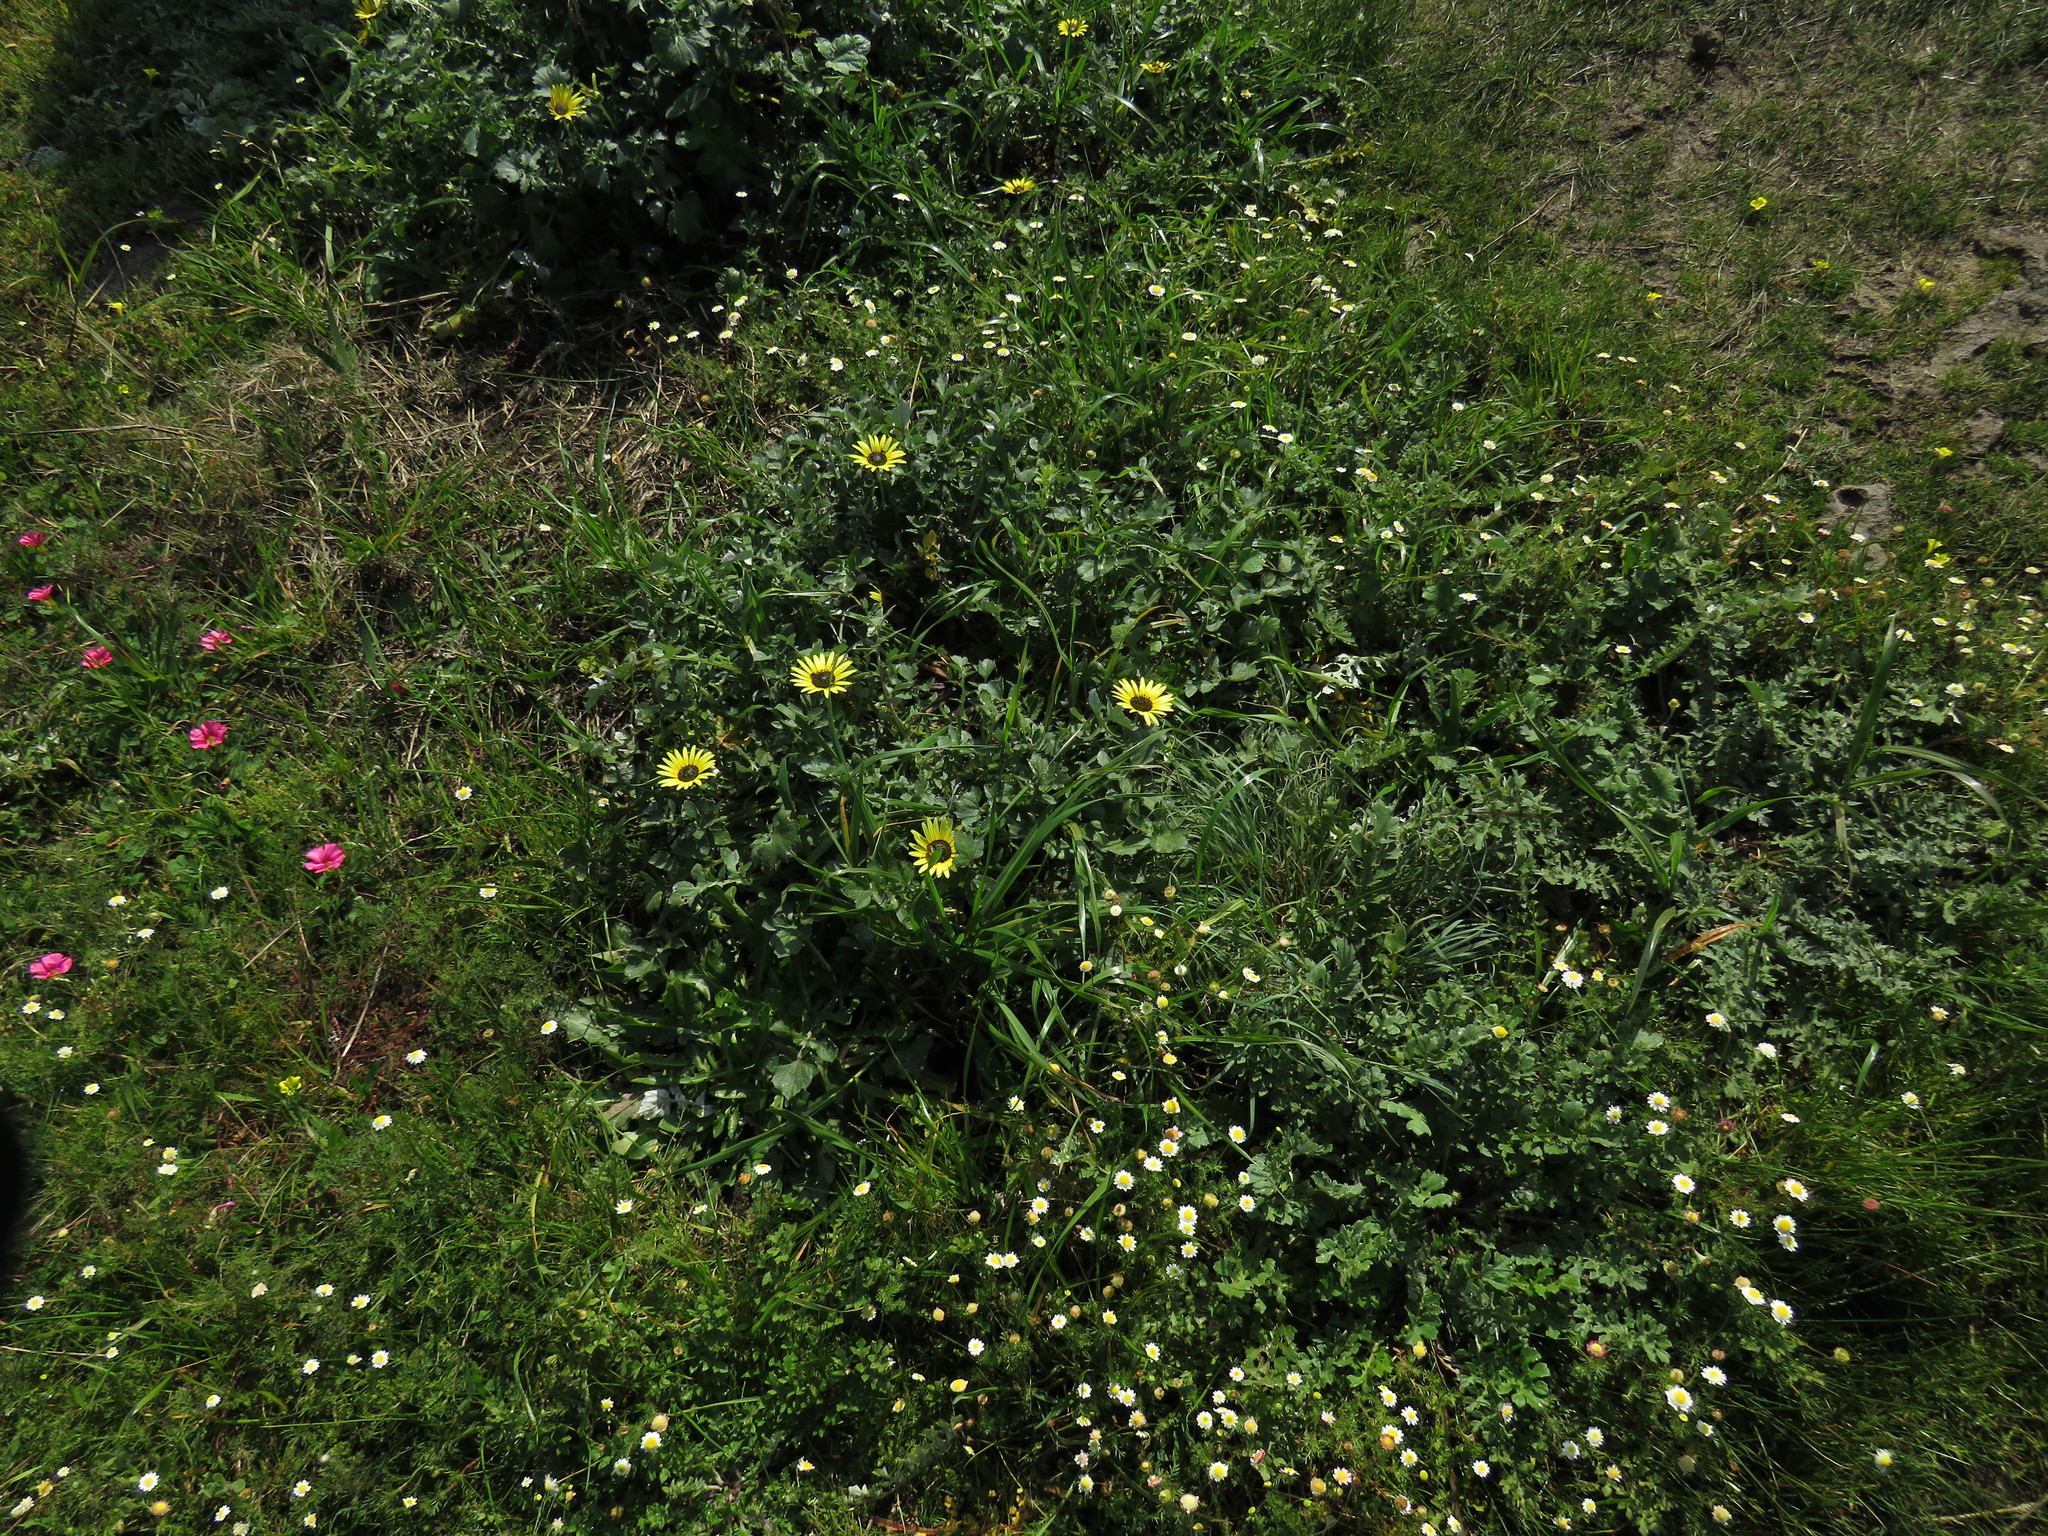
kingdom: Plantae
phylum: Tracheophyta
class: Magnoliopsida
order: Asterales
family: Asteraceae
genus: Arctotheca
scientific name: Arctotheca calendula
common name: Capeweed
